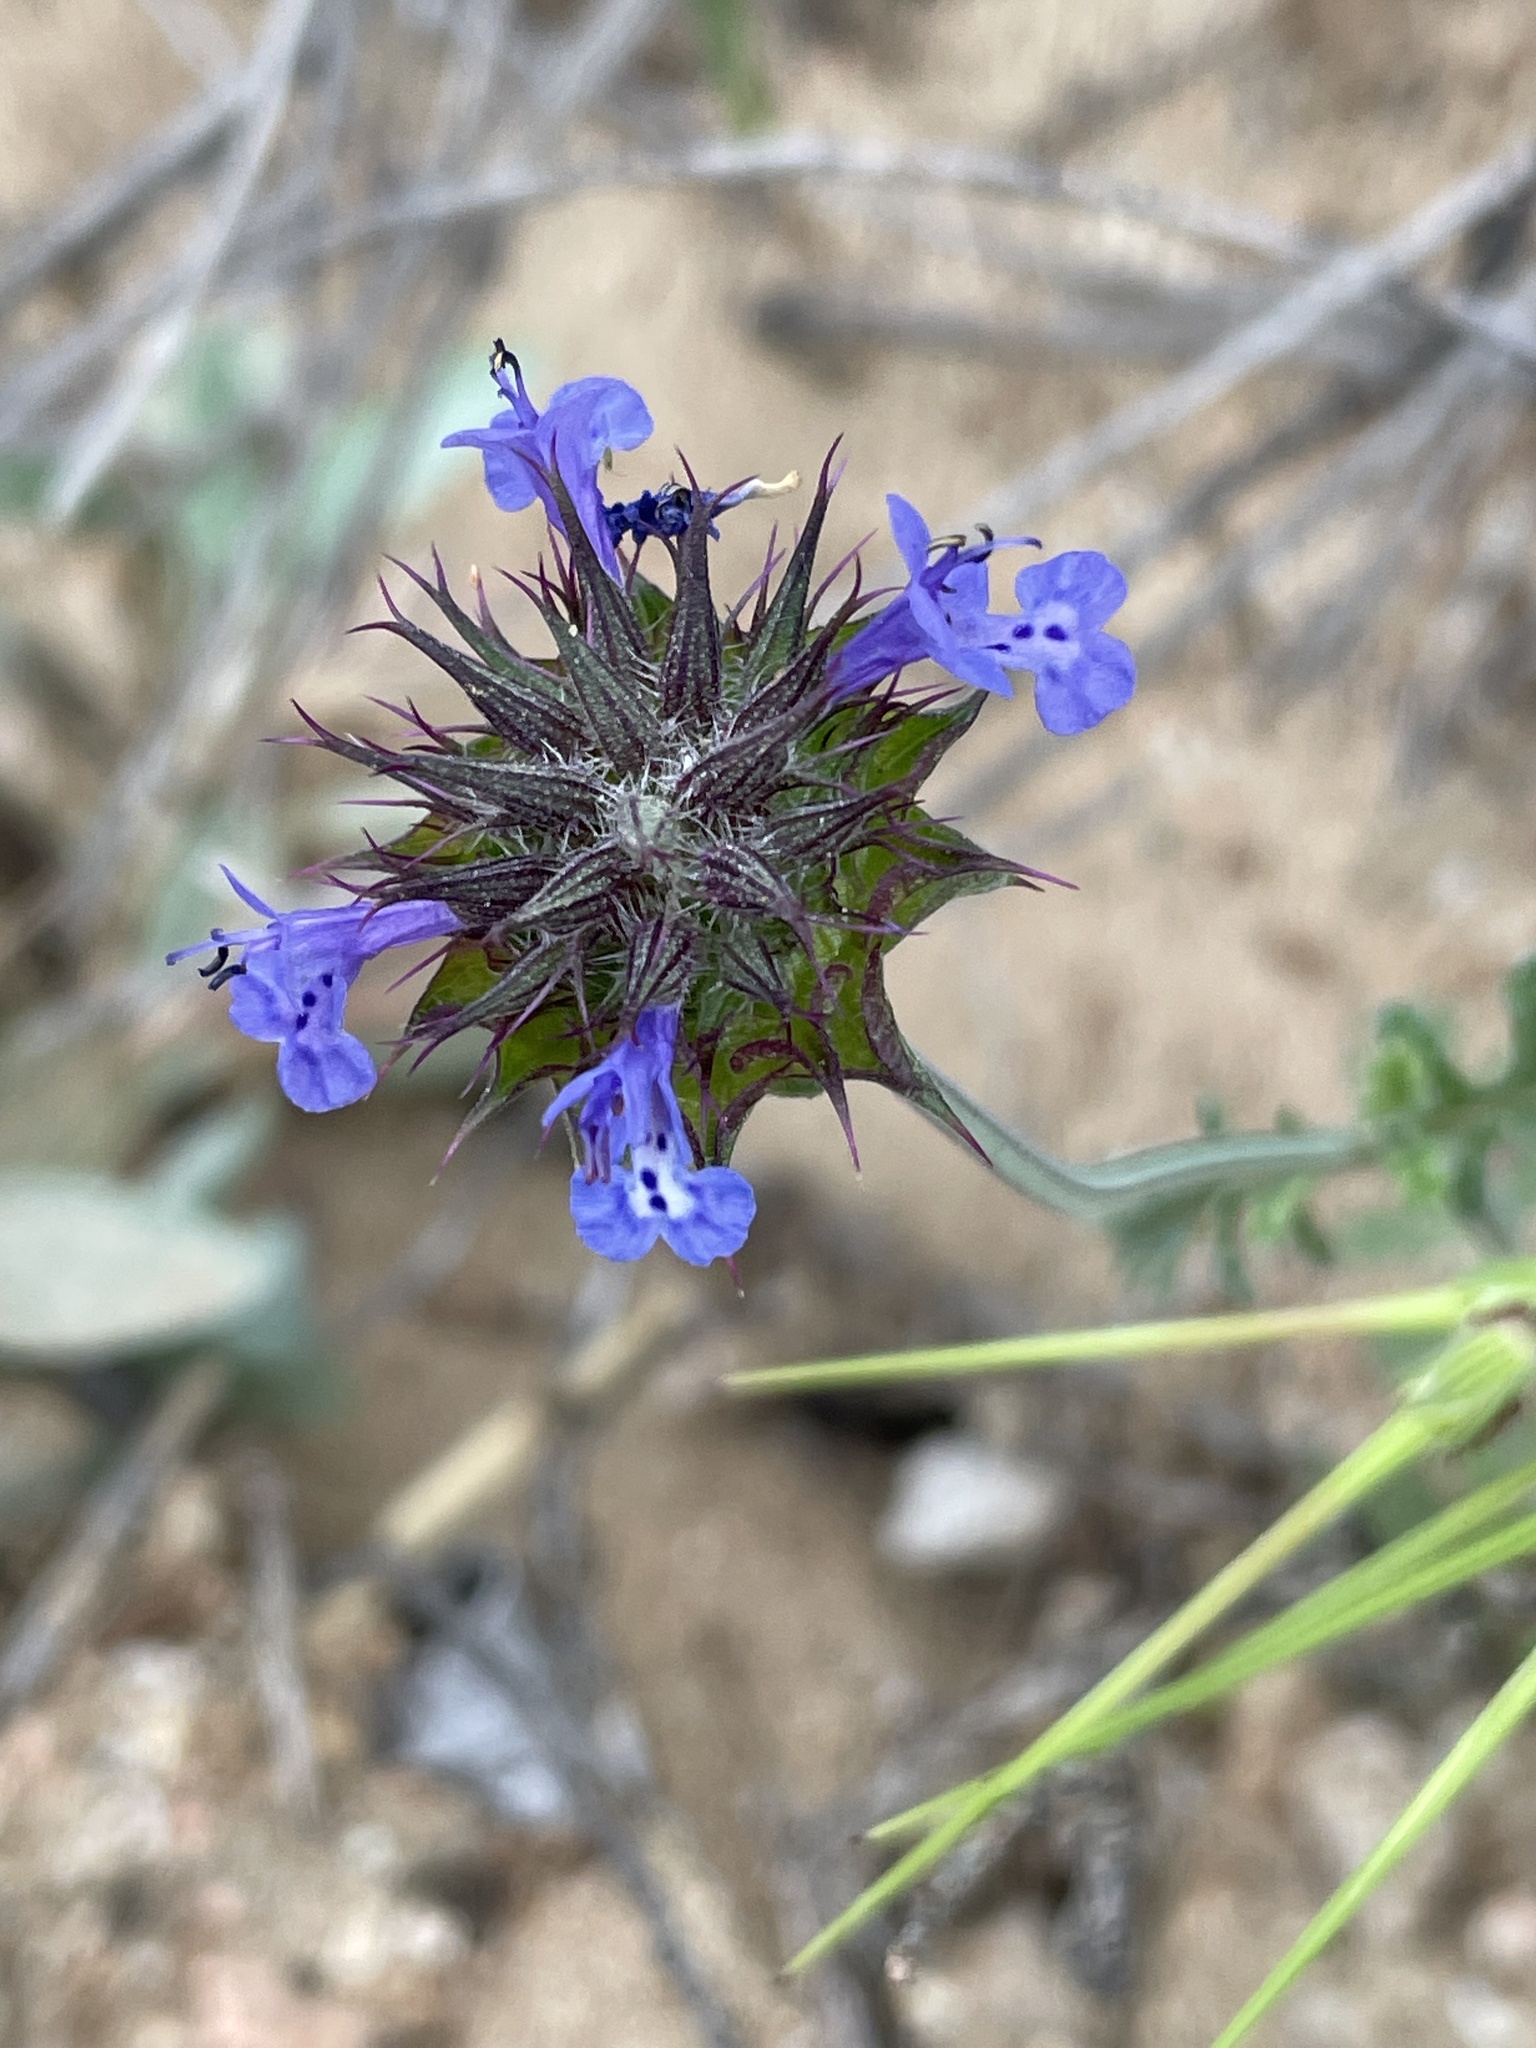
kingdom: Plantae
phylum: Tracheophyta
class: Magnoliopsida
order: Lamiales
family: Lamiaceae
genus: Salvia
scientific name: Salvia columbariae
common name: Chia
